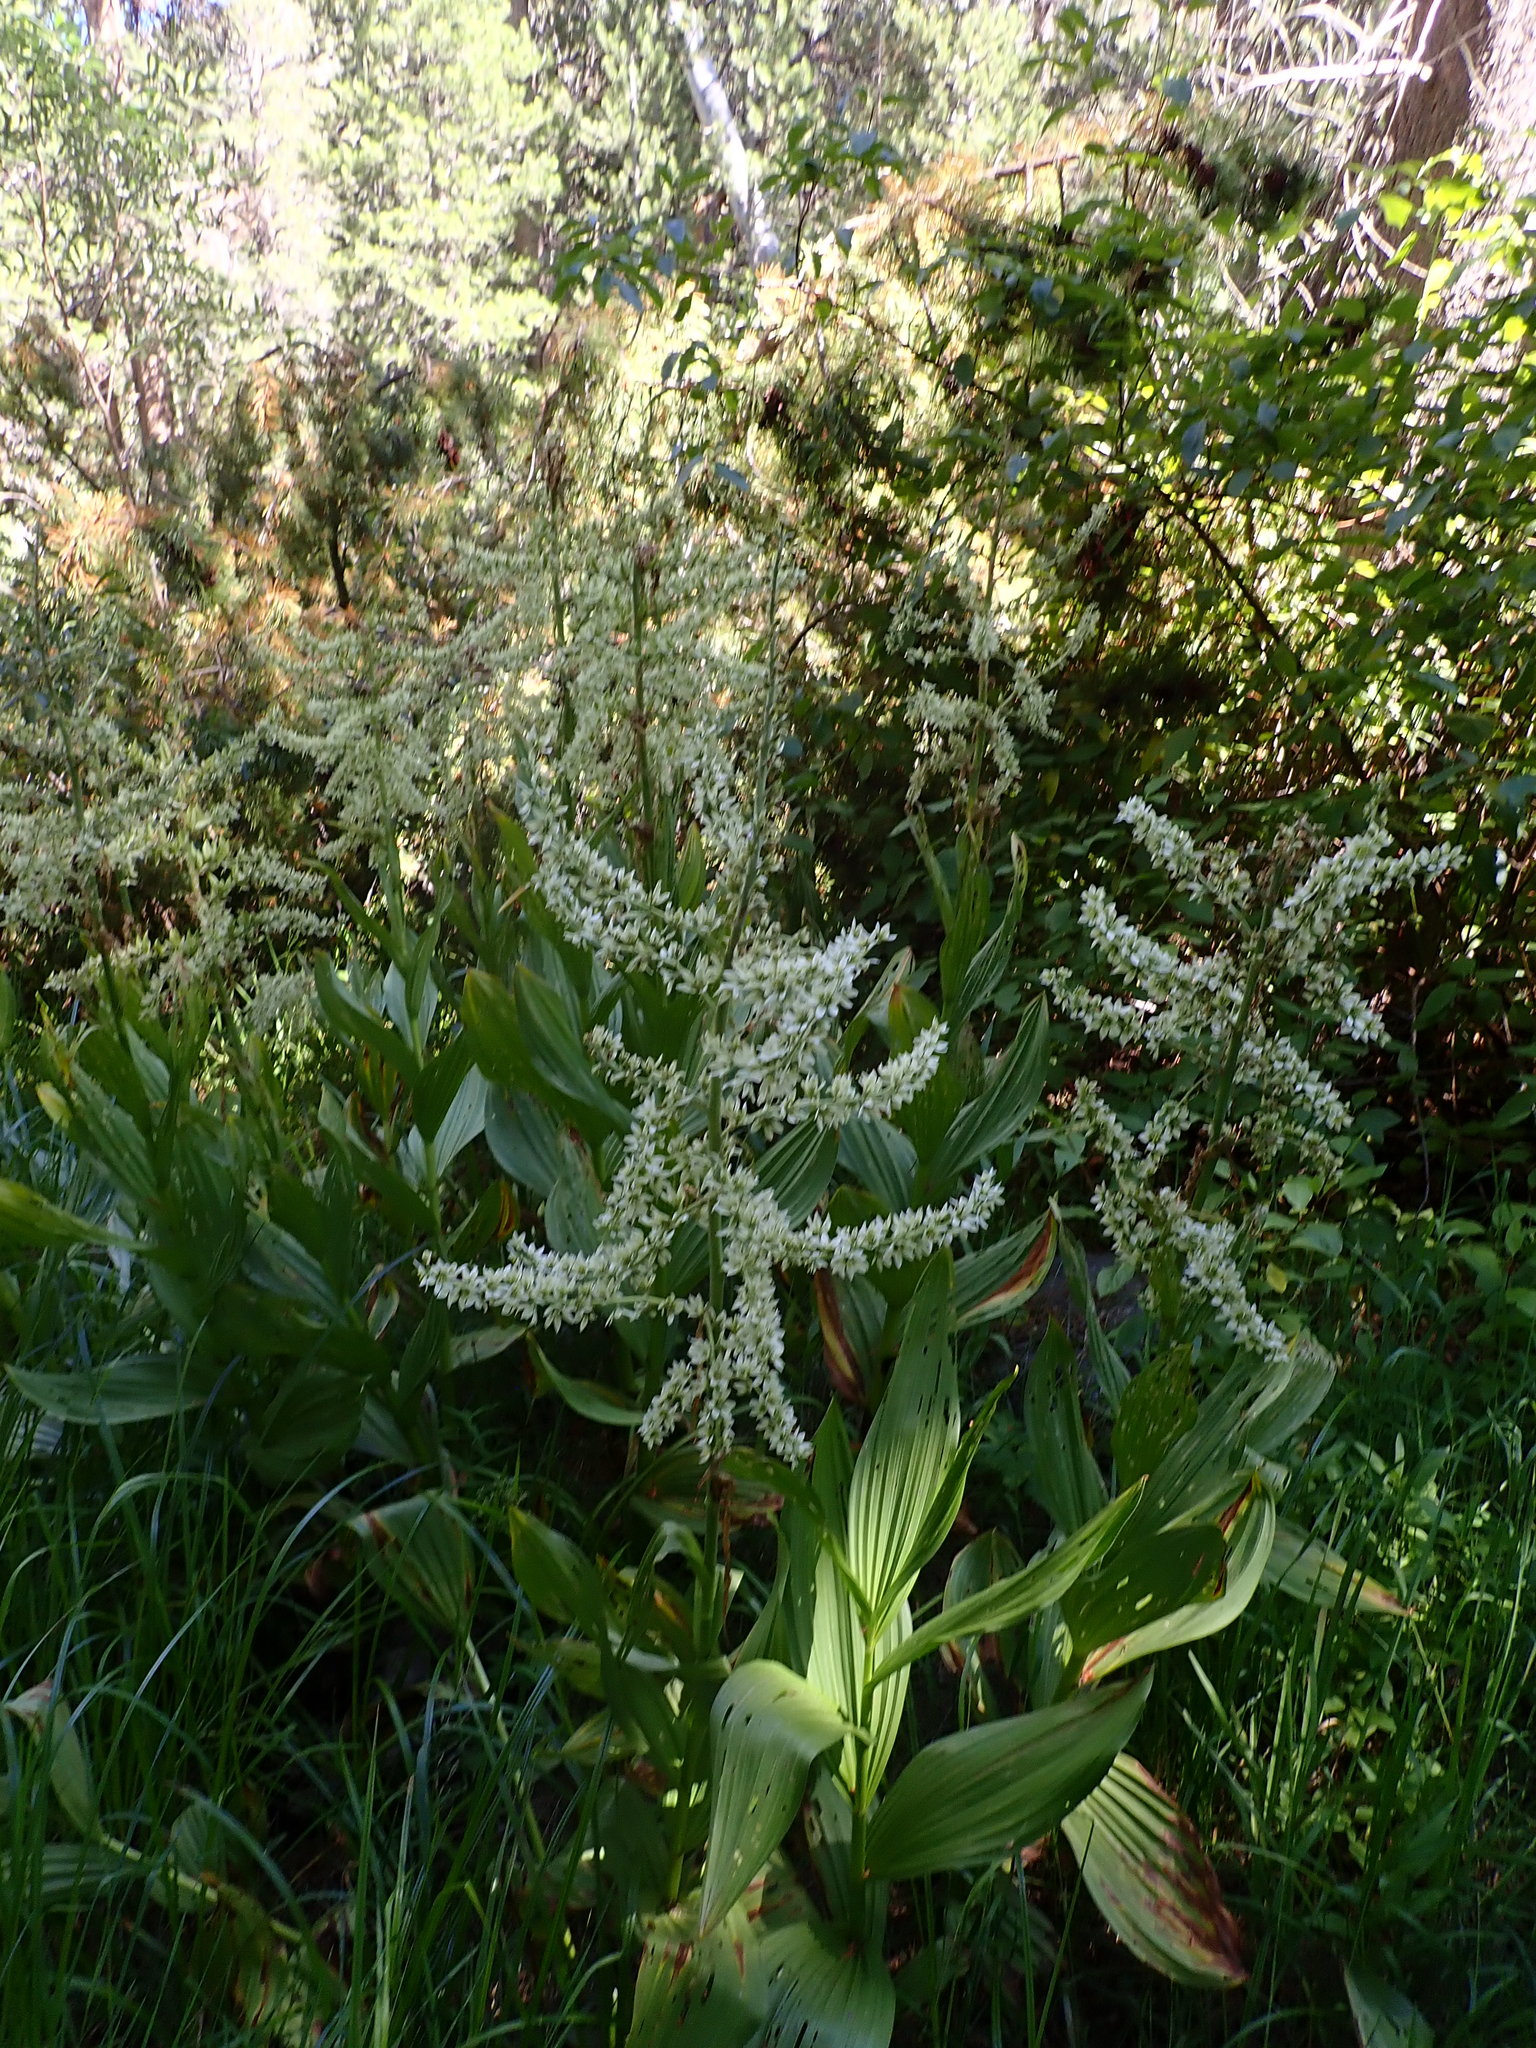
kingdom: Plantae
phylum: Tracheophyta
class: Liliopsida
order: Liliales
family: Melanthiaceae
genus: Veratrum
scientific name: Veratrum californicum
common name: California veratrum
